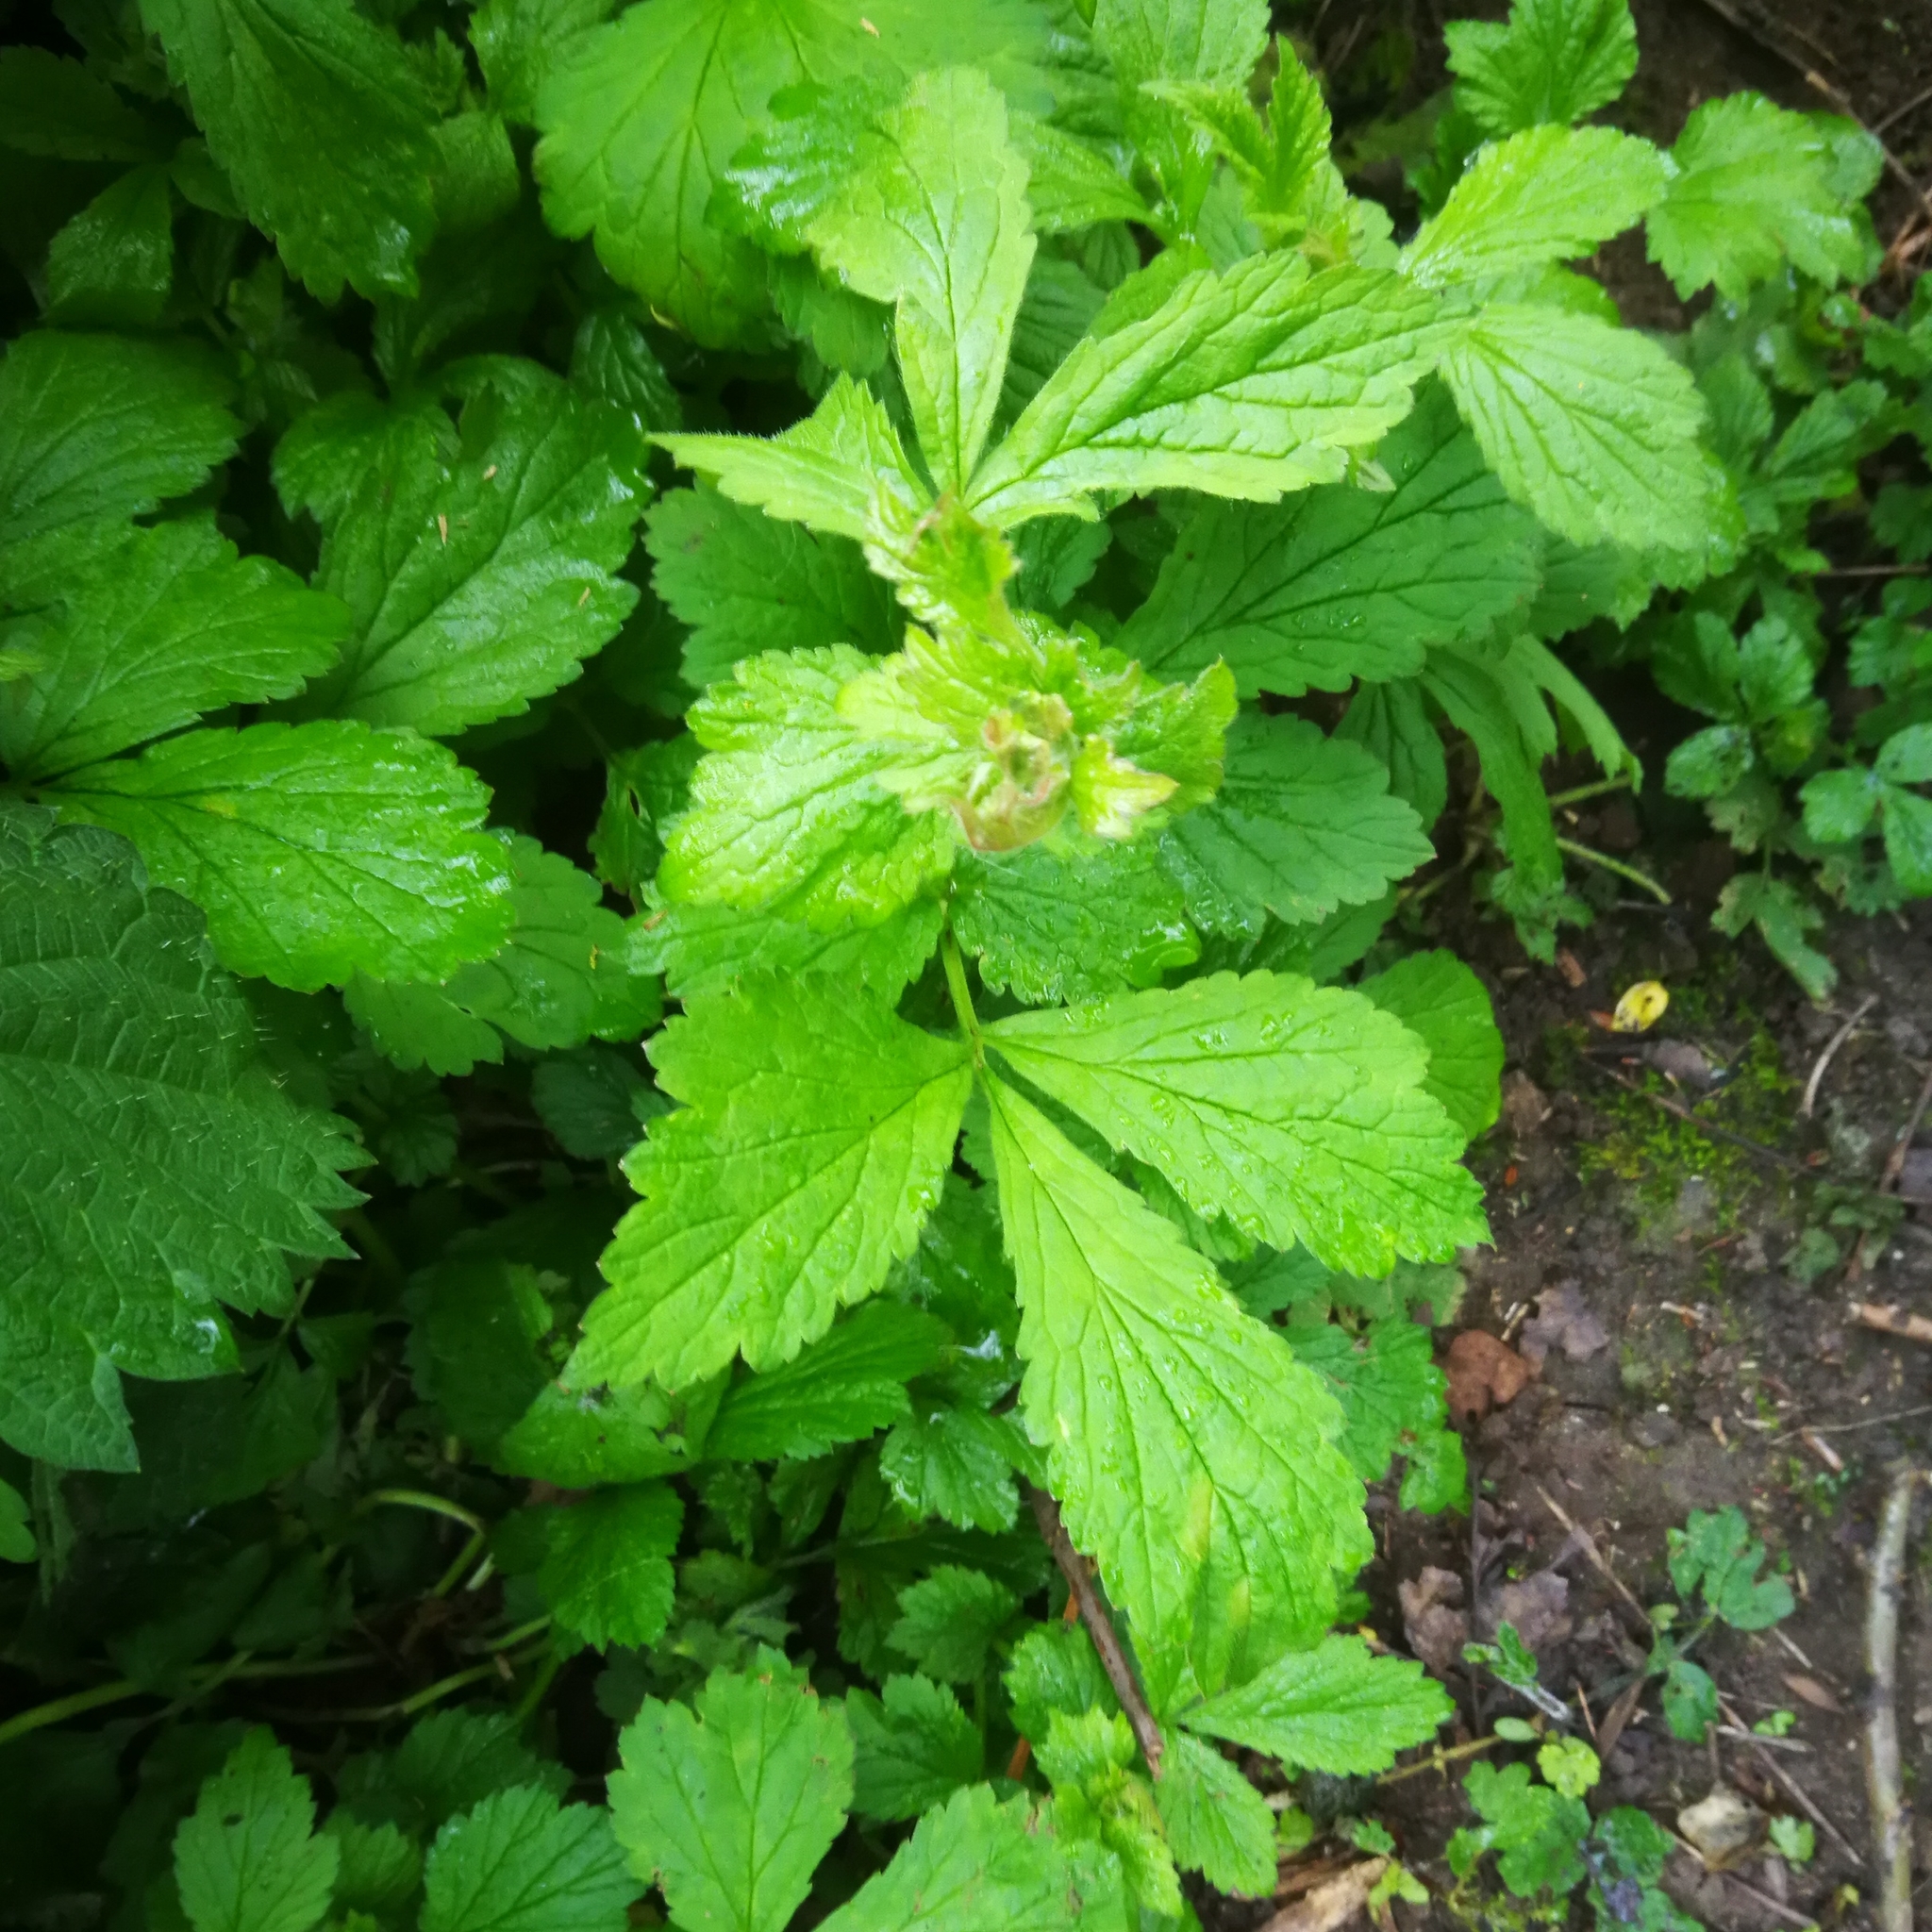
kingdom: Plantae
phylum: Tracheophyta
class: Magnoliopsida
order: Rosales
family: Rosaceae
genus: Geum
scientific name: Geum urbanum
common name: Wood avens
